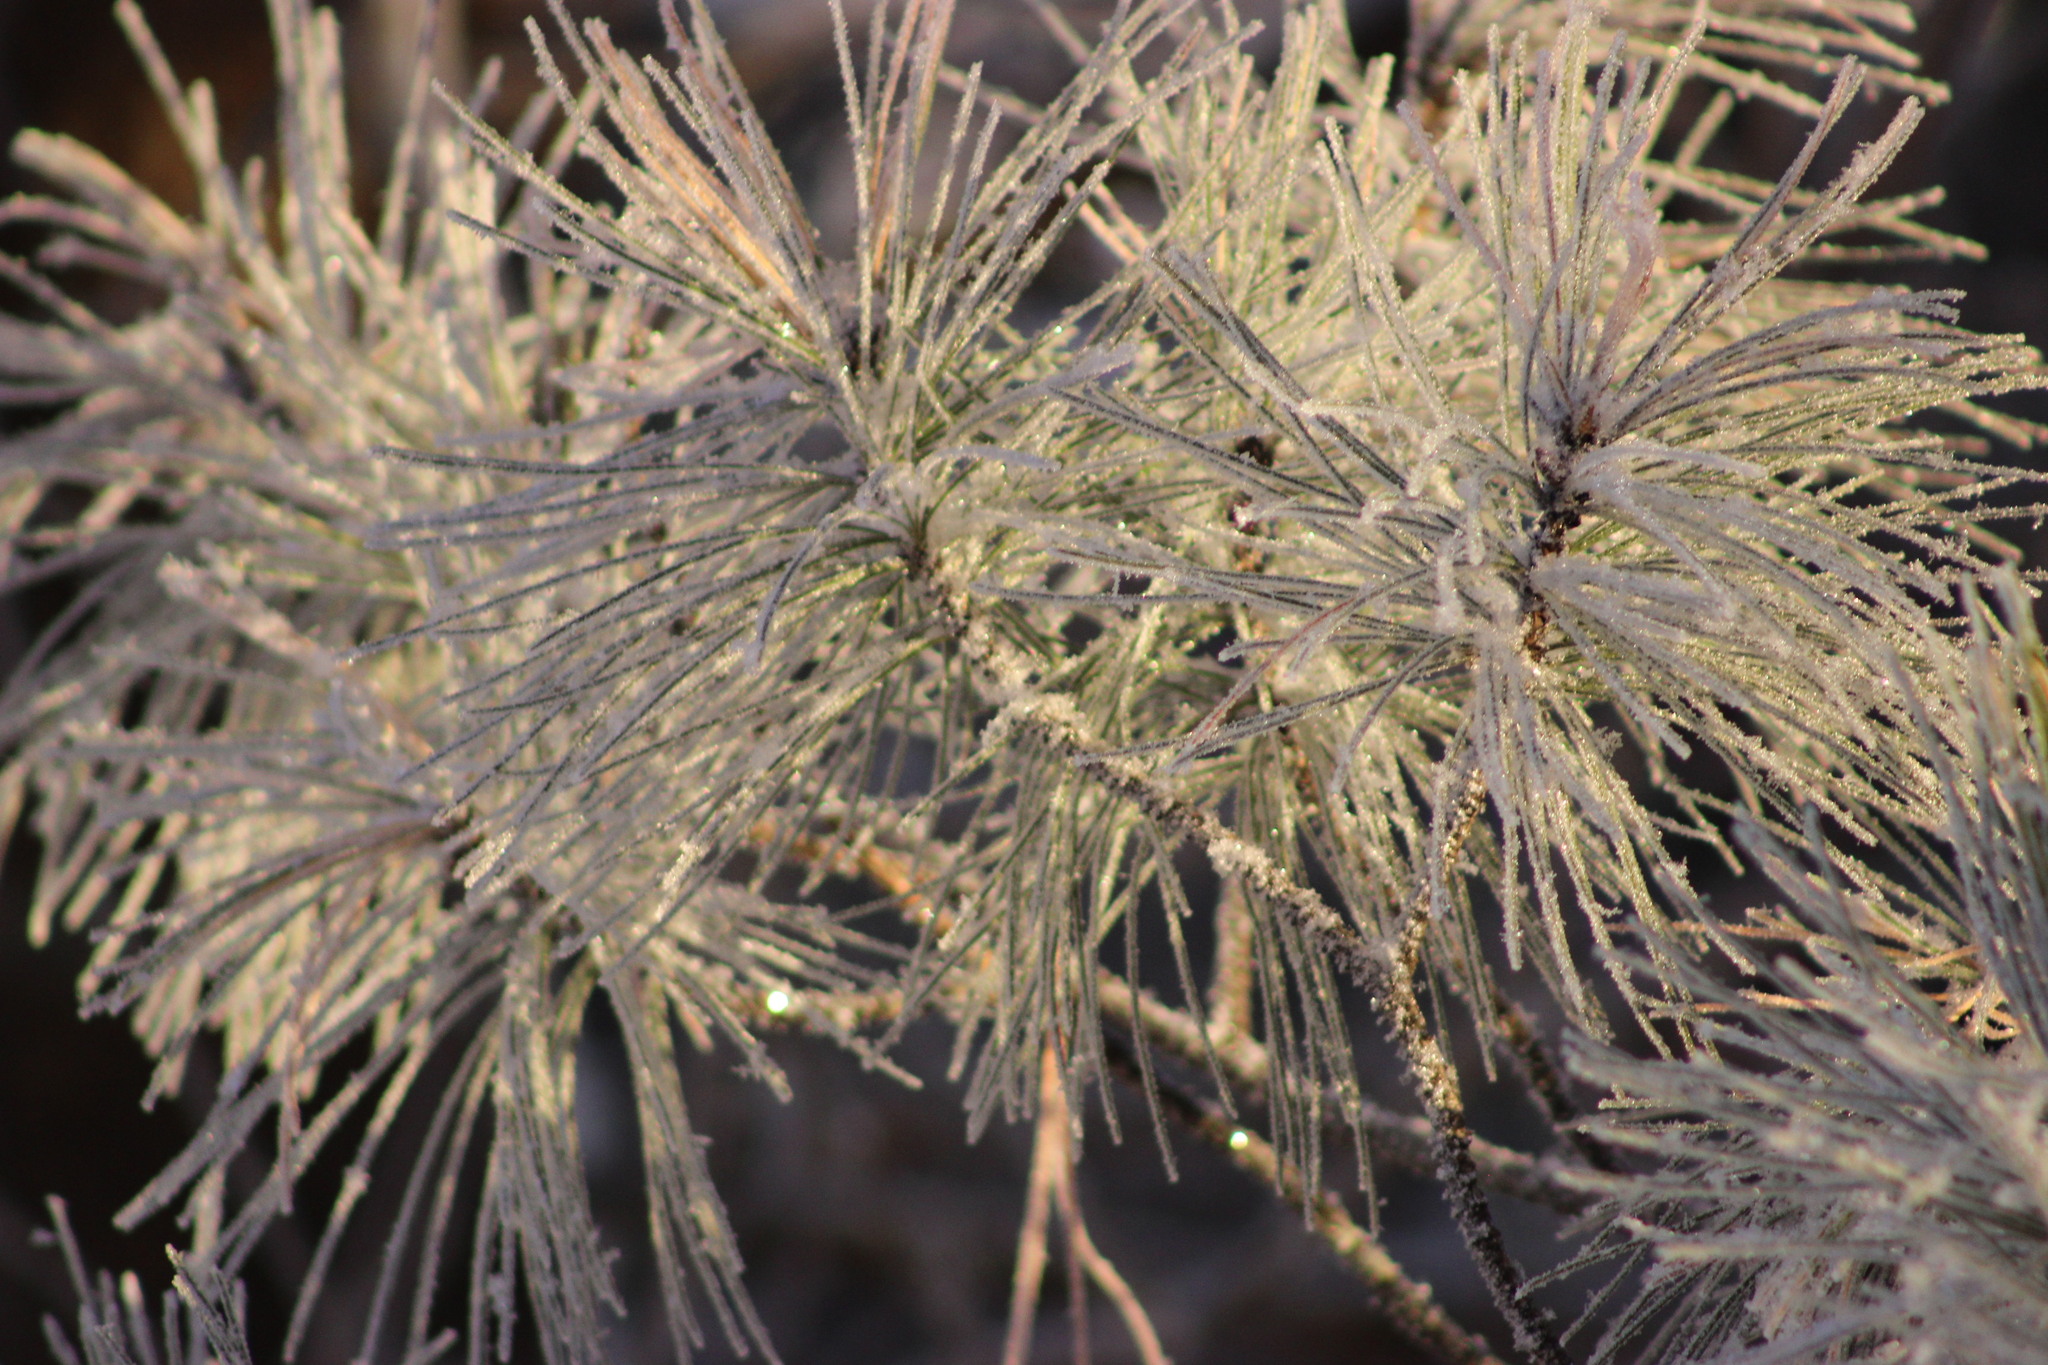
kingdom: Plantae
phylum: Tracheophyta
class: Pinopsida
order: Pinales
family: Pinaceae
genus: Pinus
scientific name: Pinus sibirica
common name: Siberian pine
